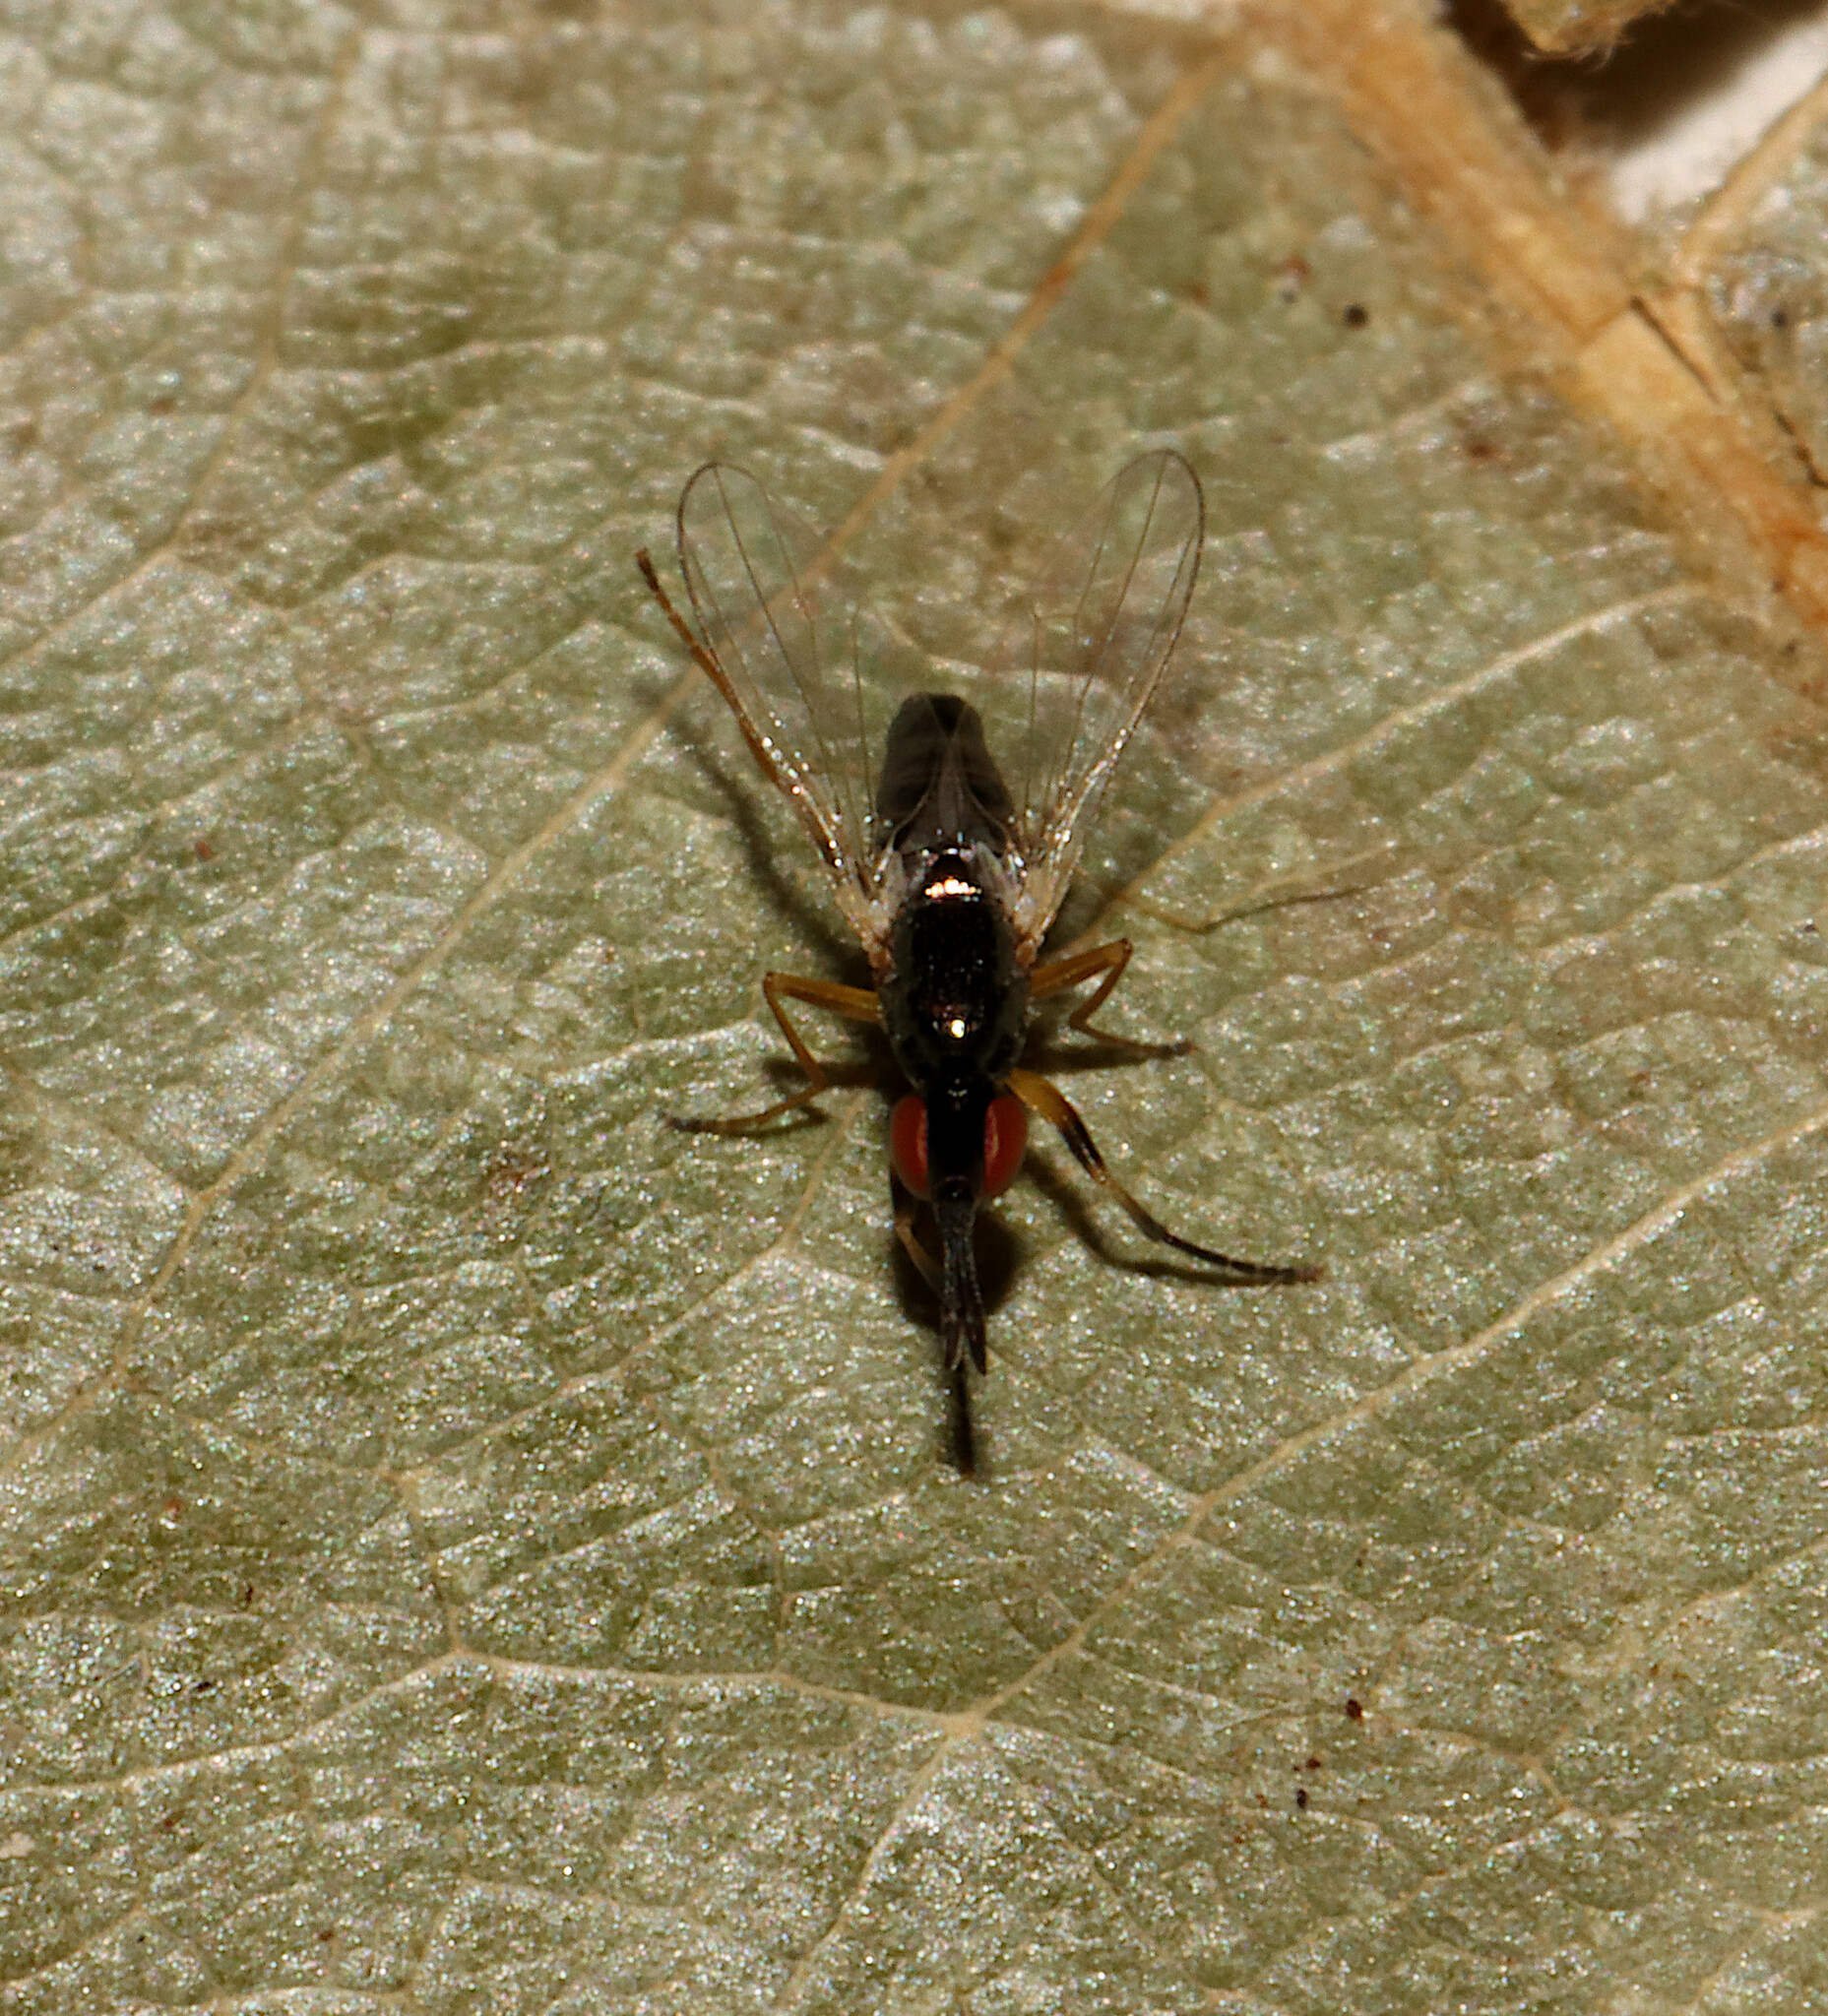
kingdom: Animalia
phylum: Arthropoda
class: Insecta
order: Diptera
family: Piophilidae
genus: Prochyliza
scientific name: Prochyliza xanthostoma
